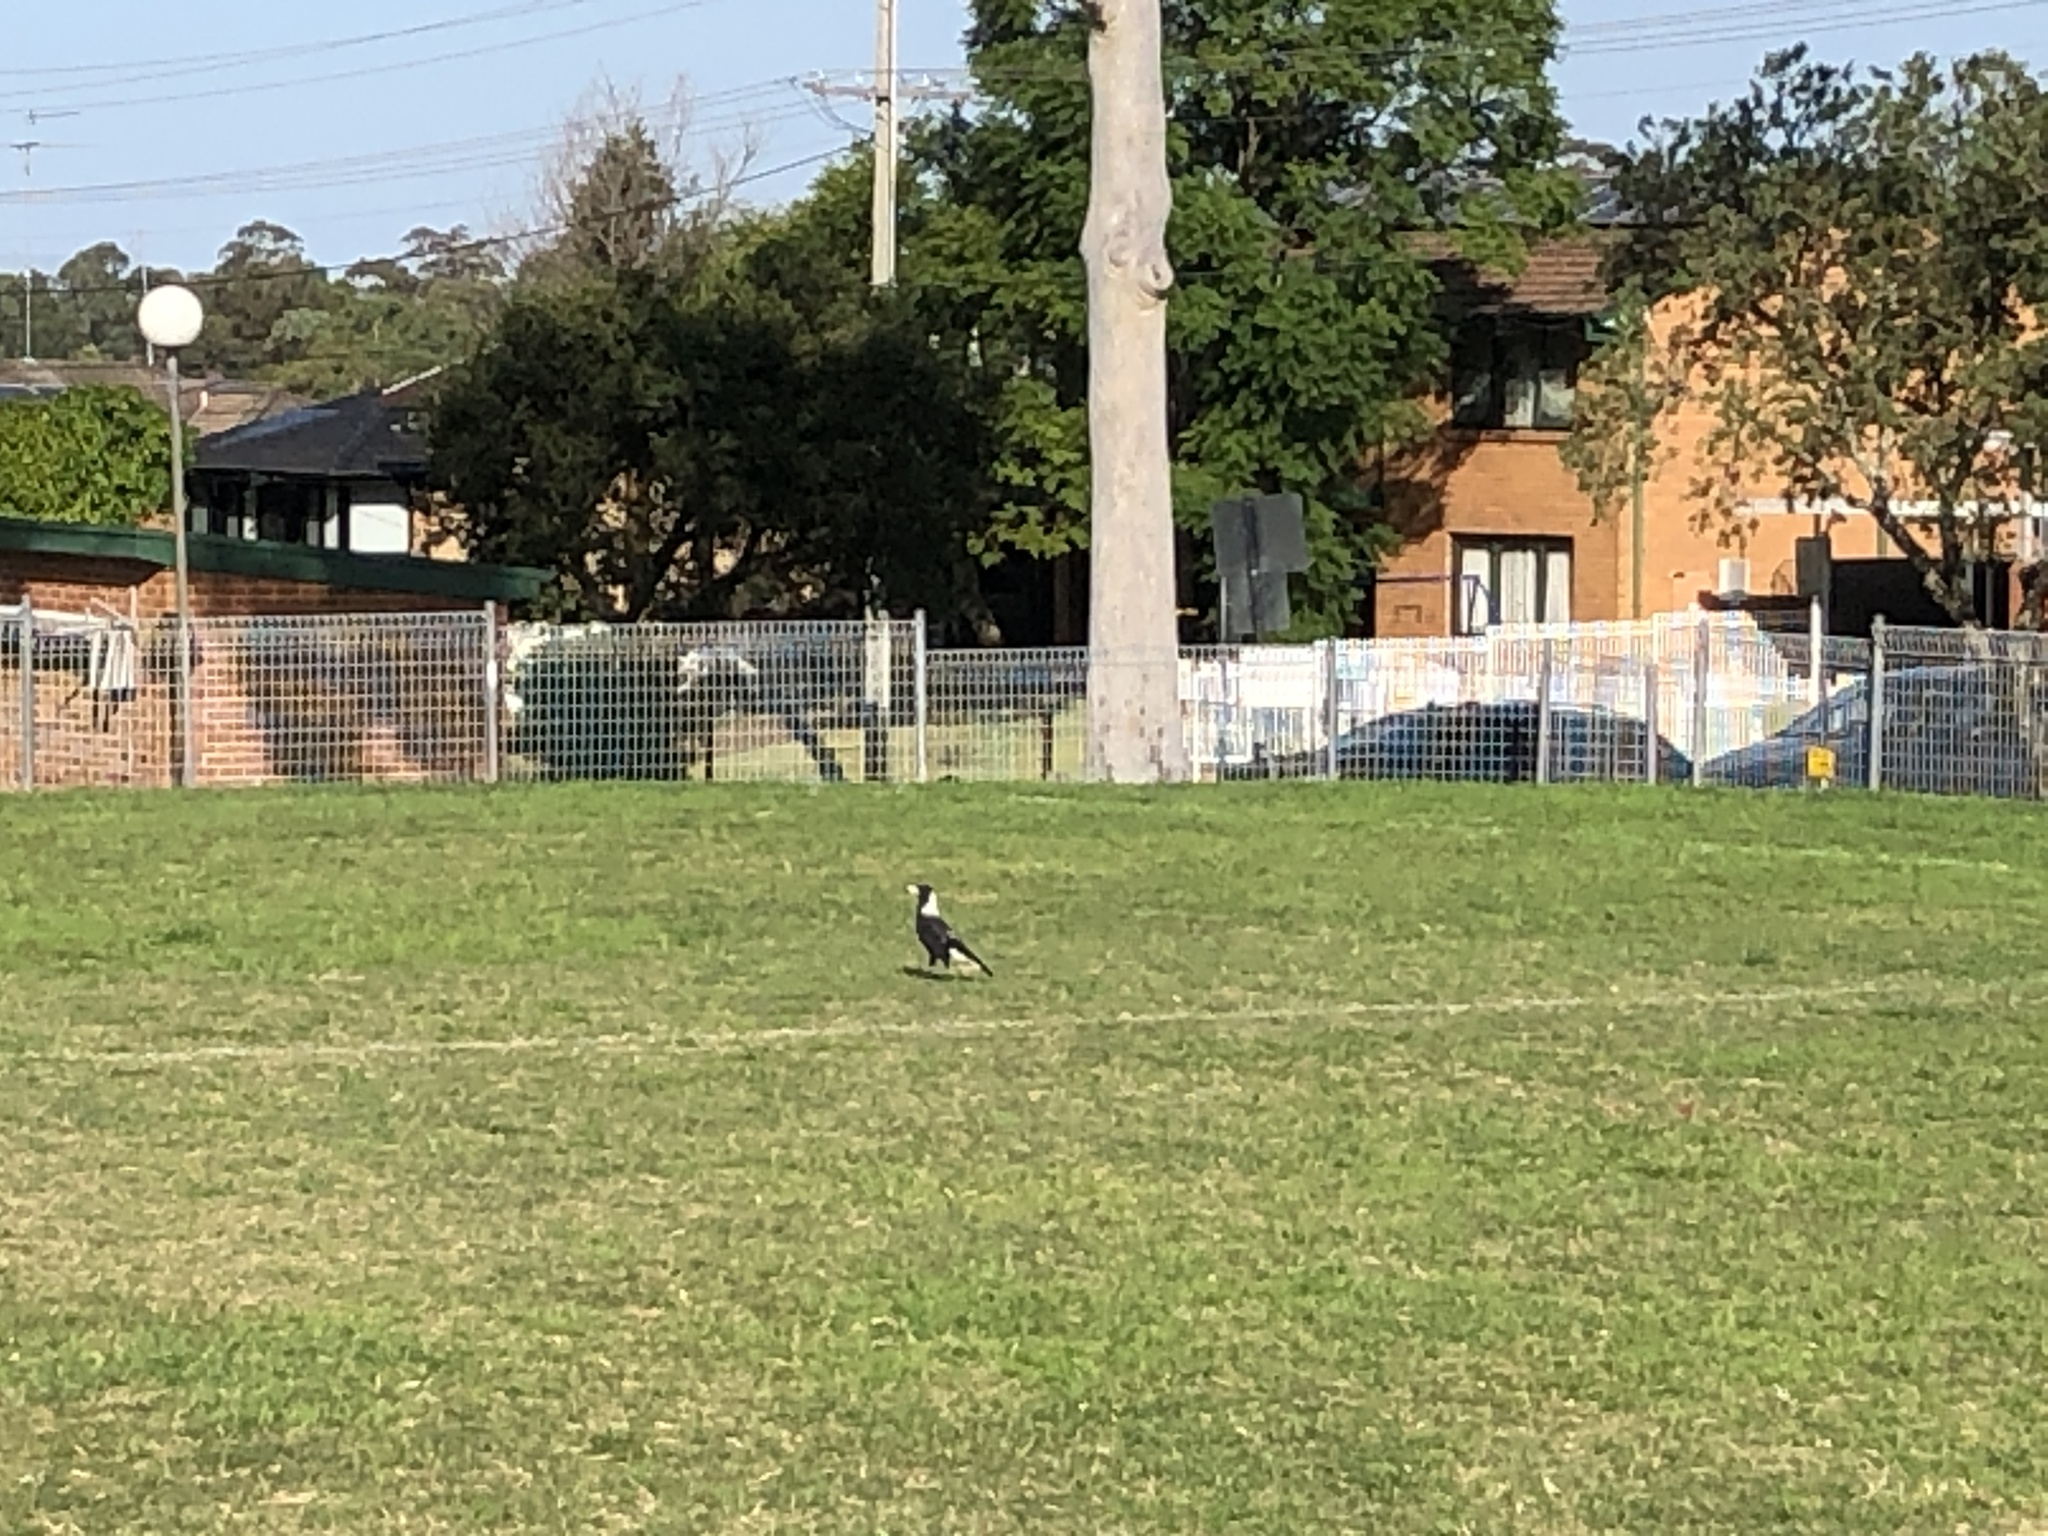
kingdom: Animalia
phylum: Chordata
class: Aves
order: Passeriformes
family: Cracticidae
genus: Gymnorhina
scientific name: Gymnorhina tibicen
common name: Australian magpie
